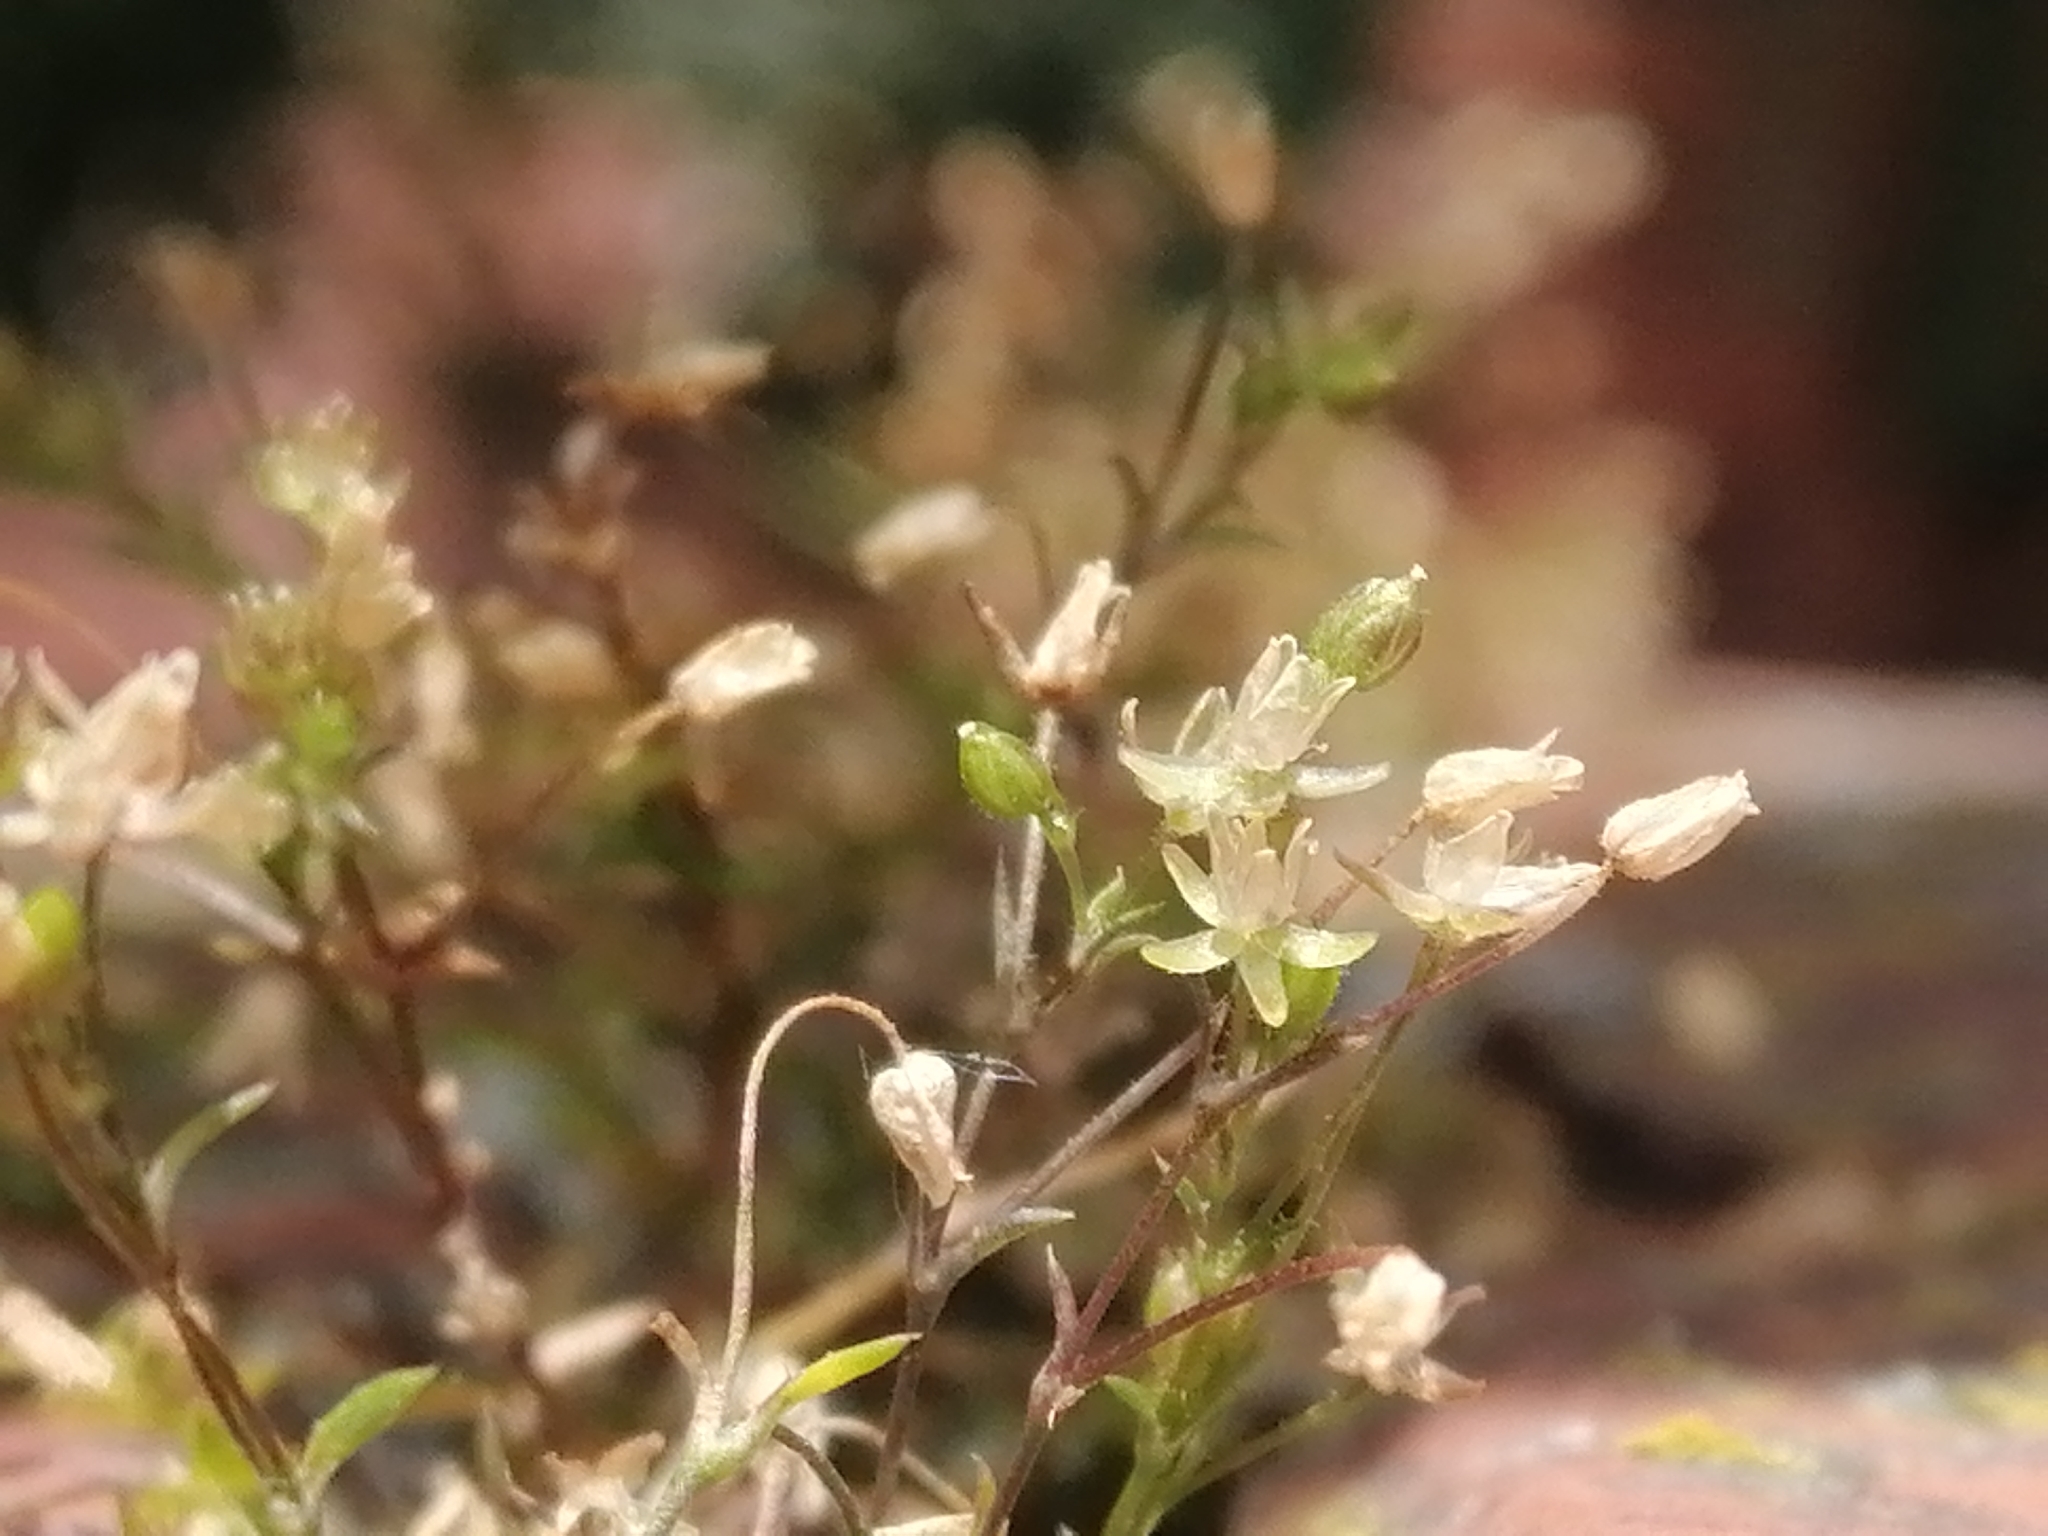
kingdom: Plantae
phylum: Tracheophyta
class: Magnoliopsida
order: Caryophyllales
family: Caryophyllaceae
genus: Sagina
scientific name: Sagina apetala
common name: Annual pearlwort
